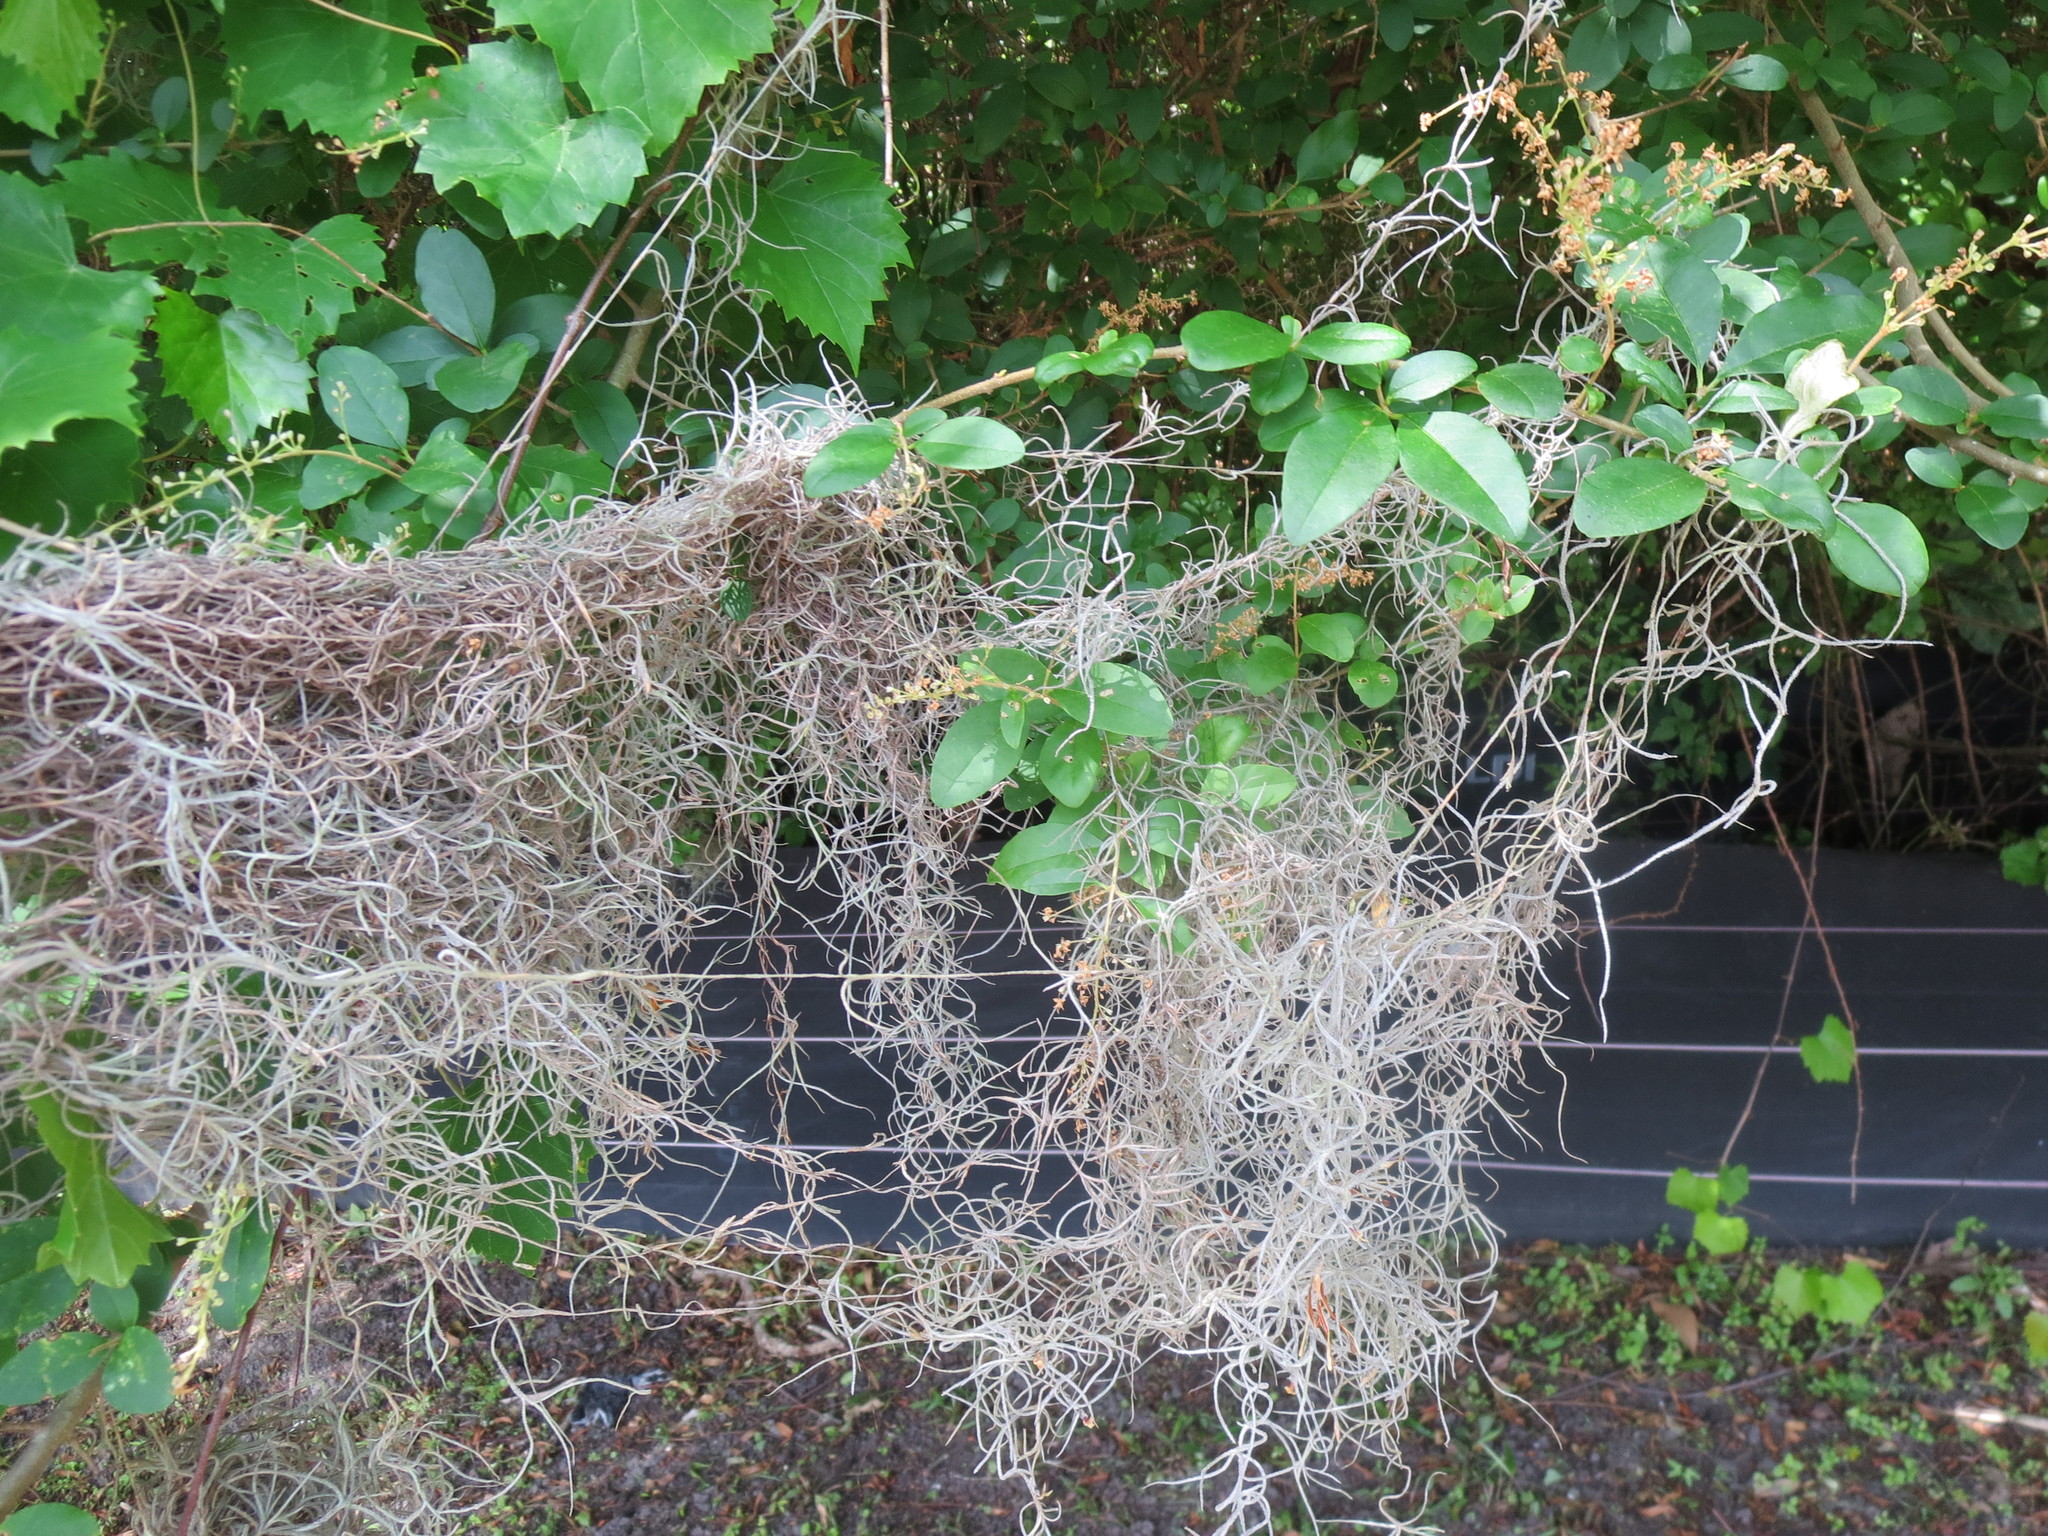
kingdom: Plantae
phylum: Tracheophyta
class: Liliopsida
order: Poales
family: Bromeliaceae
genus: Tillandsia
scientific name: Tillandsia usneoides
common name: Spanish moss
